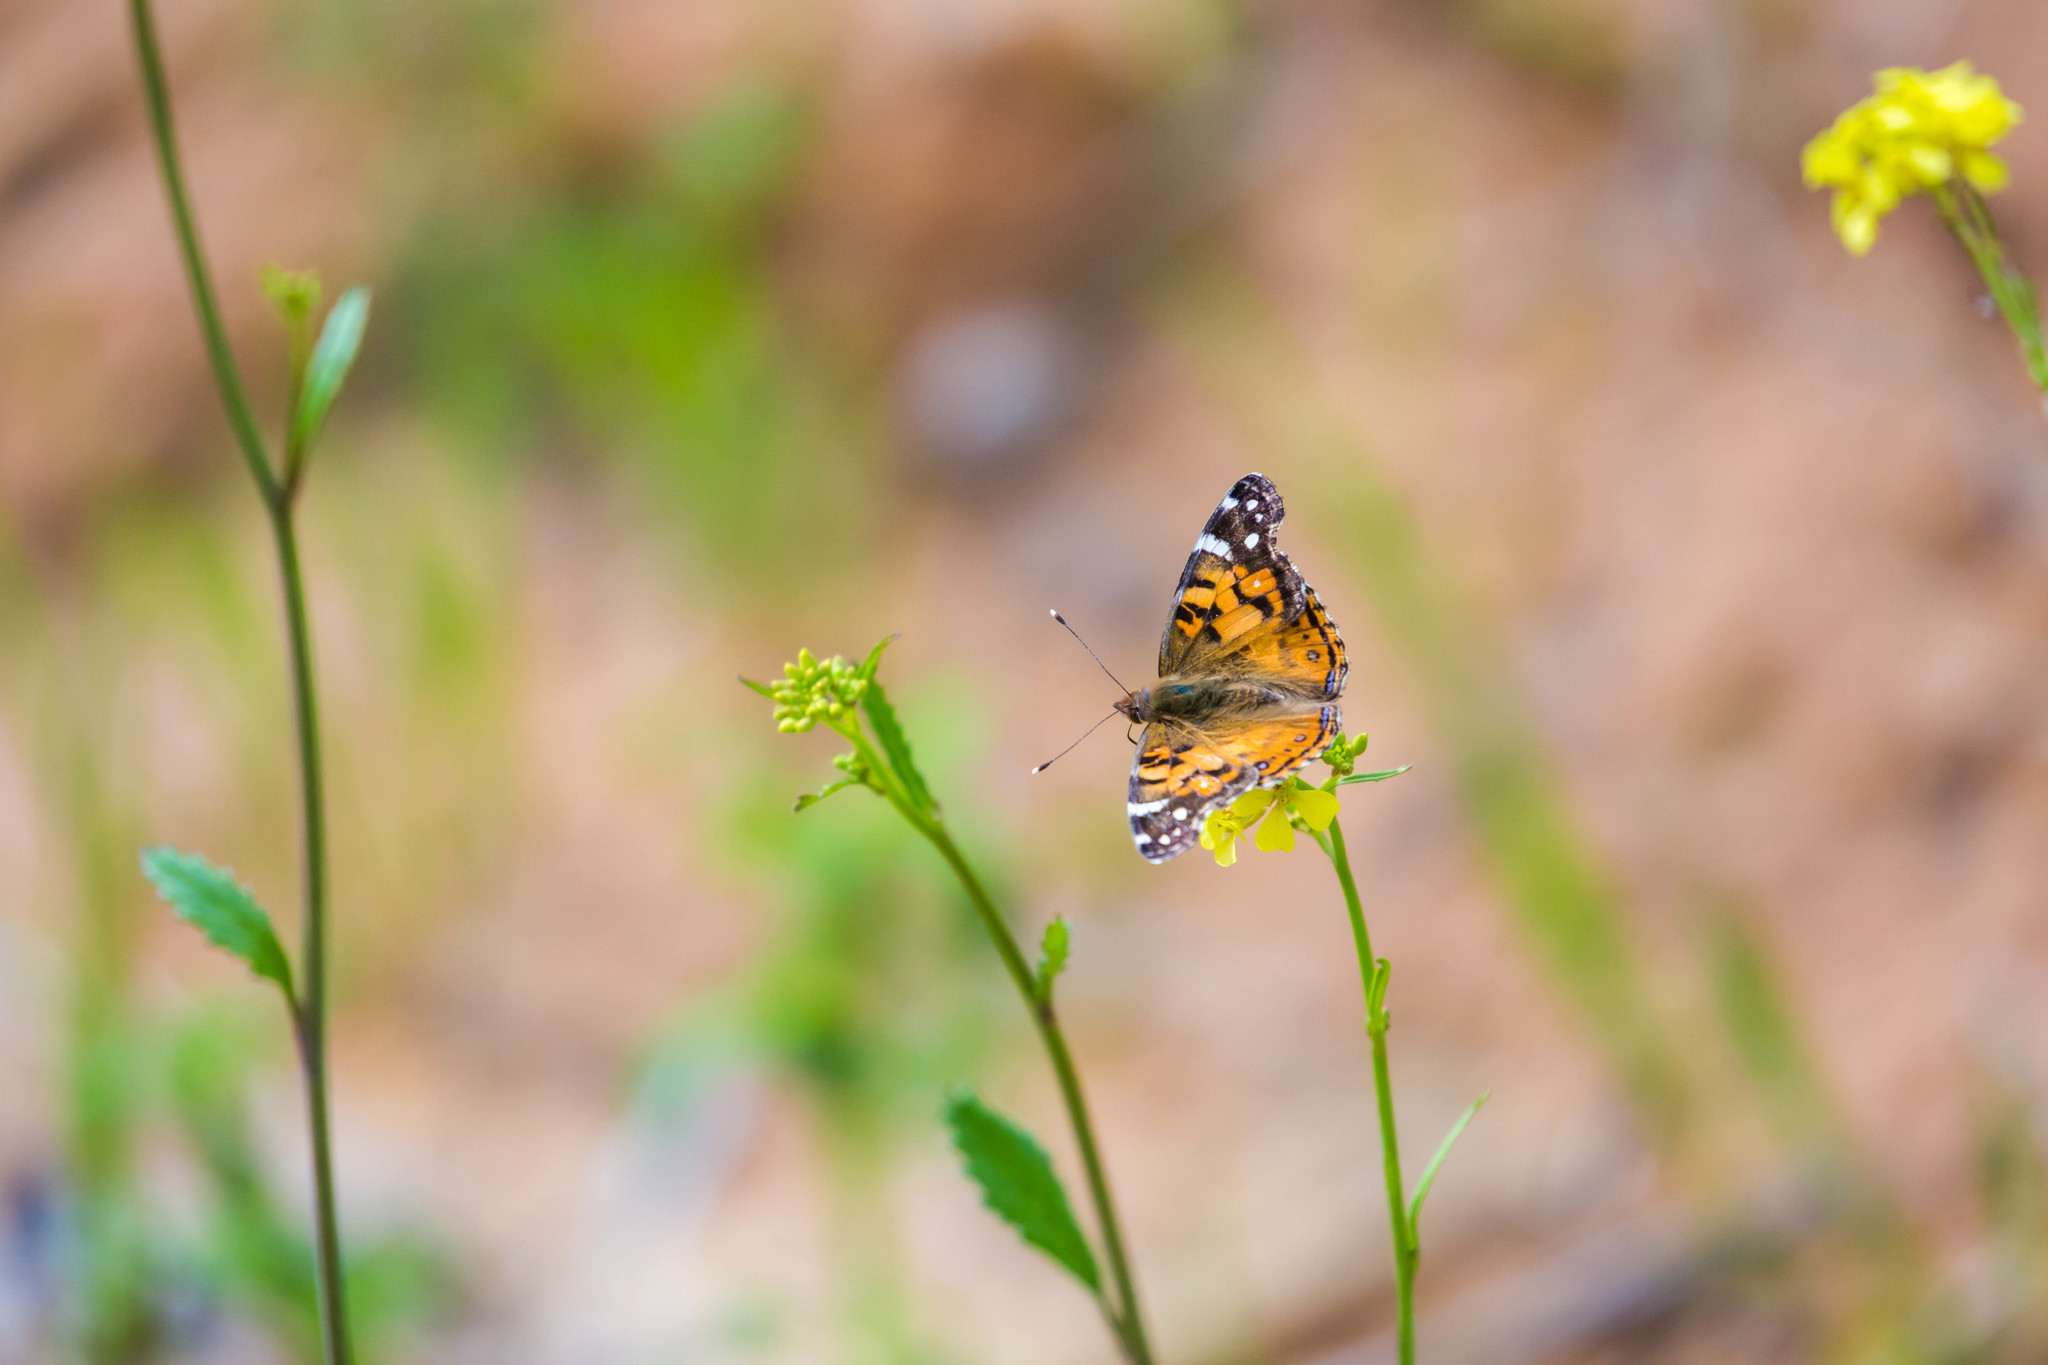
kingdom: Animalia
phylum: Arthropoda
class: Insecta
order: Lepidoptera
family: Nymphalidae
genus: Vanessa
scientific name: Vanessa virginiensis
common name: American lady
